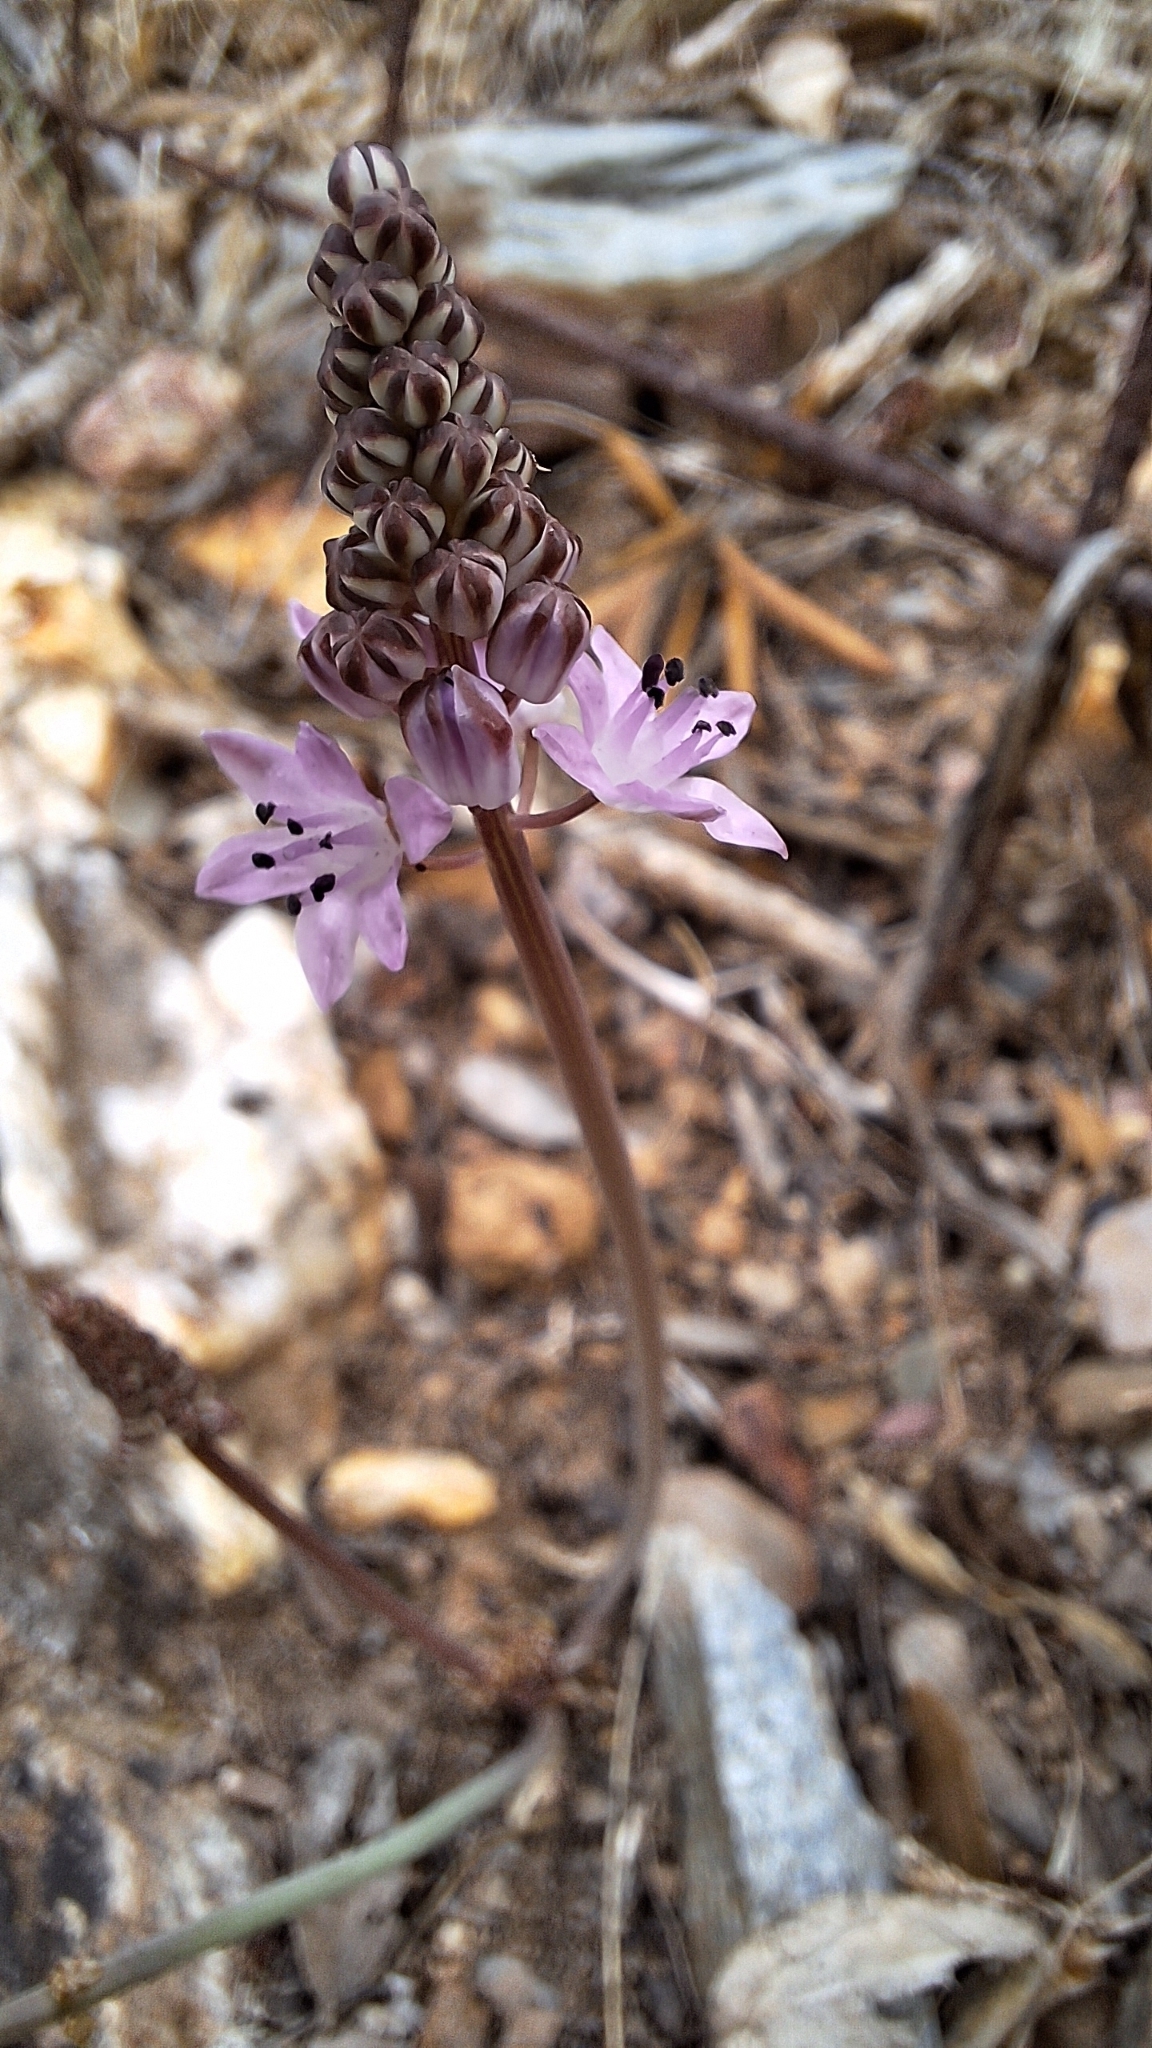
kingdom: Plantae
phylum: Tracheophyta
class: Liliopsida
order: Asparagales
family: Asparagaceae
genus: Prospero
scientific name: Prospero autumnale
